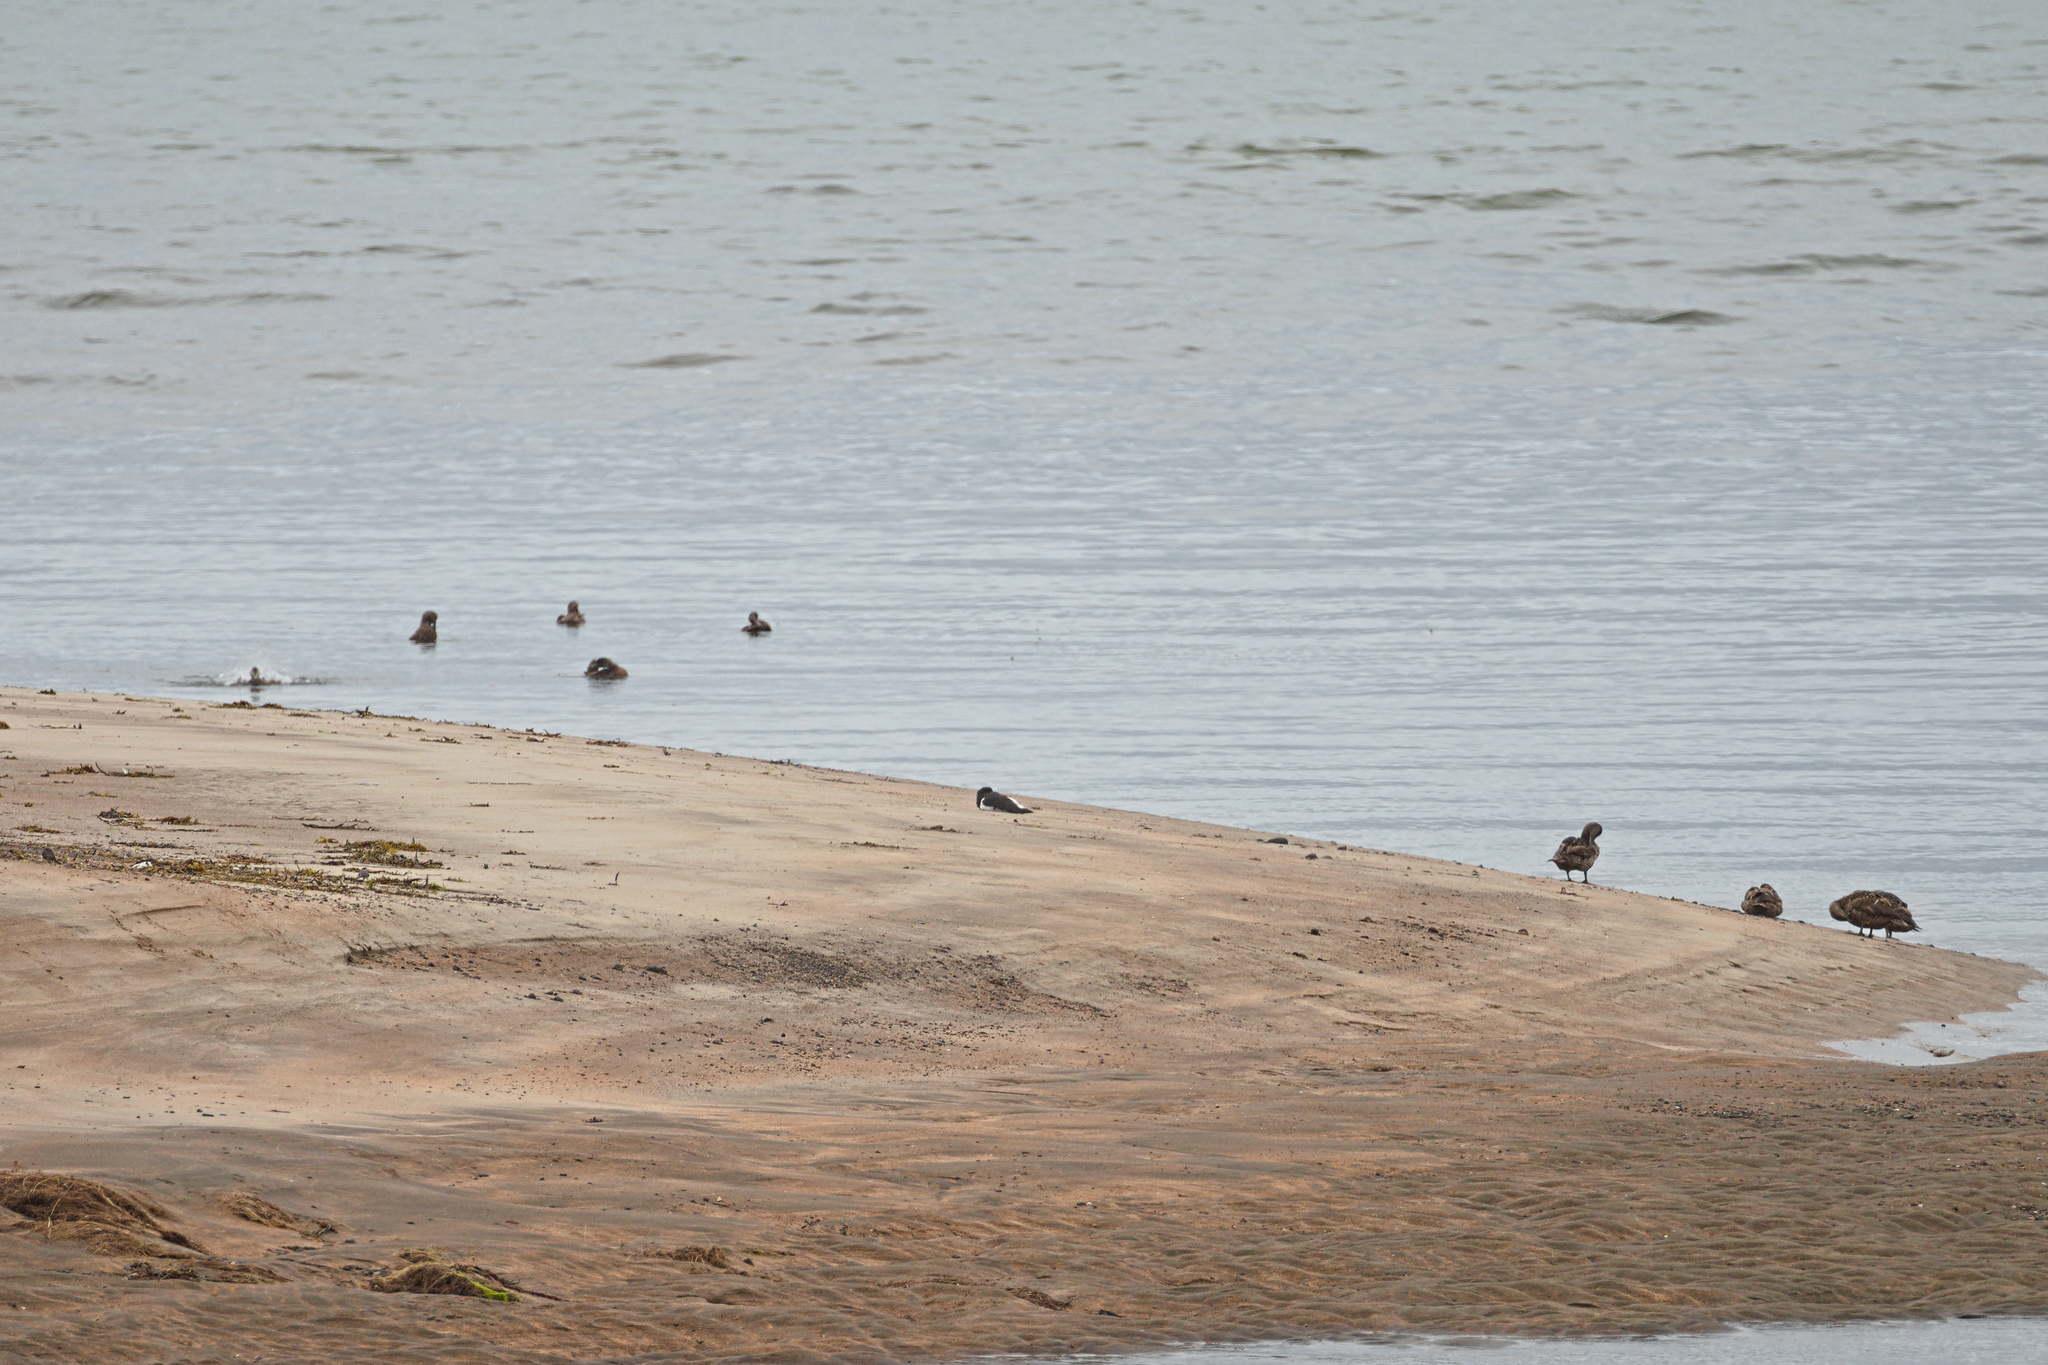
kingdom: Animalia
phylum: Chordata
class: Aves
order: Anseriformes
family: Anatidae
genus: Somateria
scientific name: Somateria mollissima
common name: Common eider
